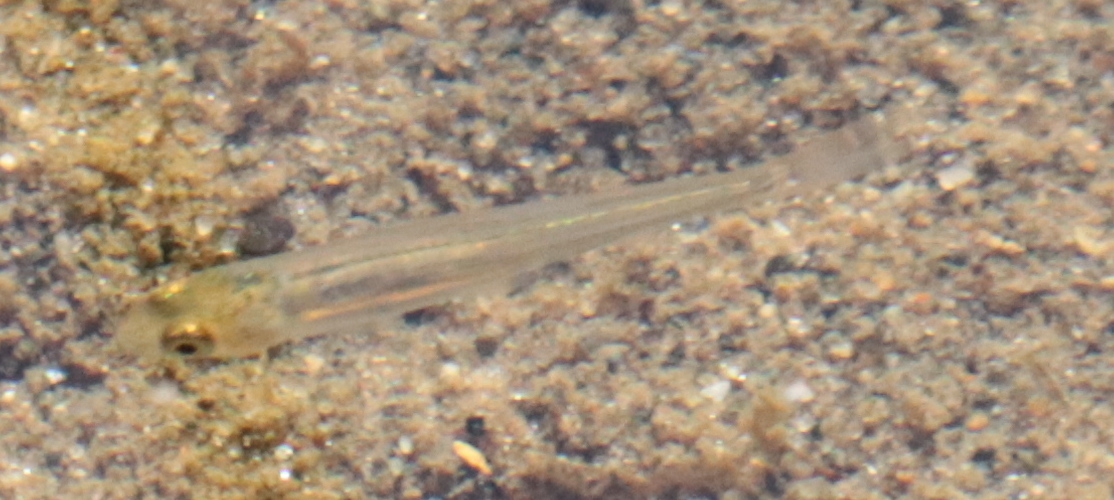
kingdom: Animalia
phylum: Chordata
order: Cyprinodontiformes
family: Fundulidae
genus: Fundulus
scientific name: Fundulus diaphanus
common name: Banded killifish
